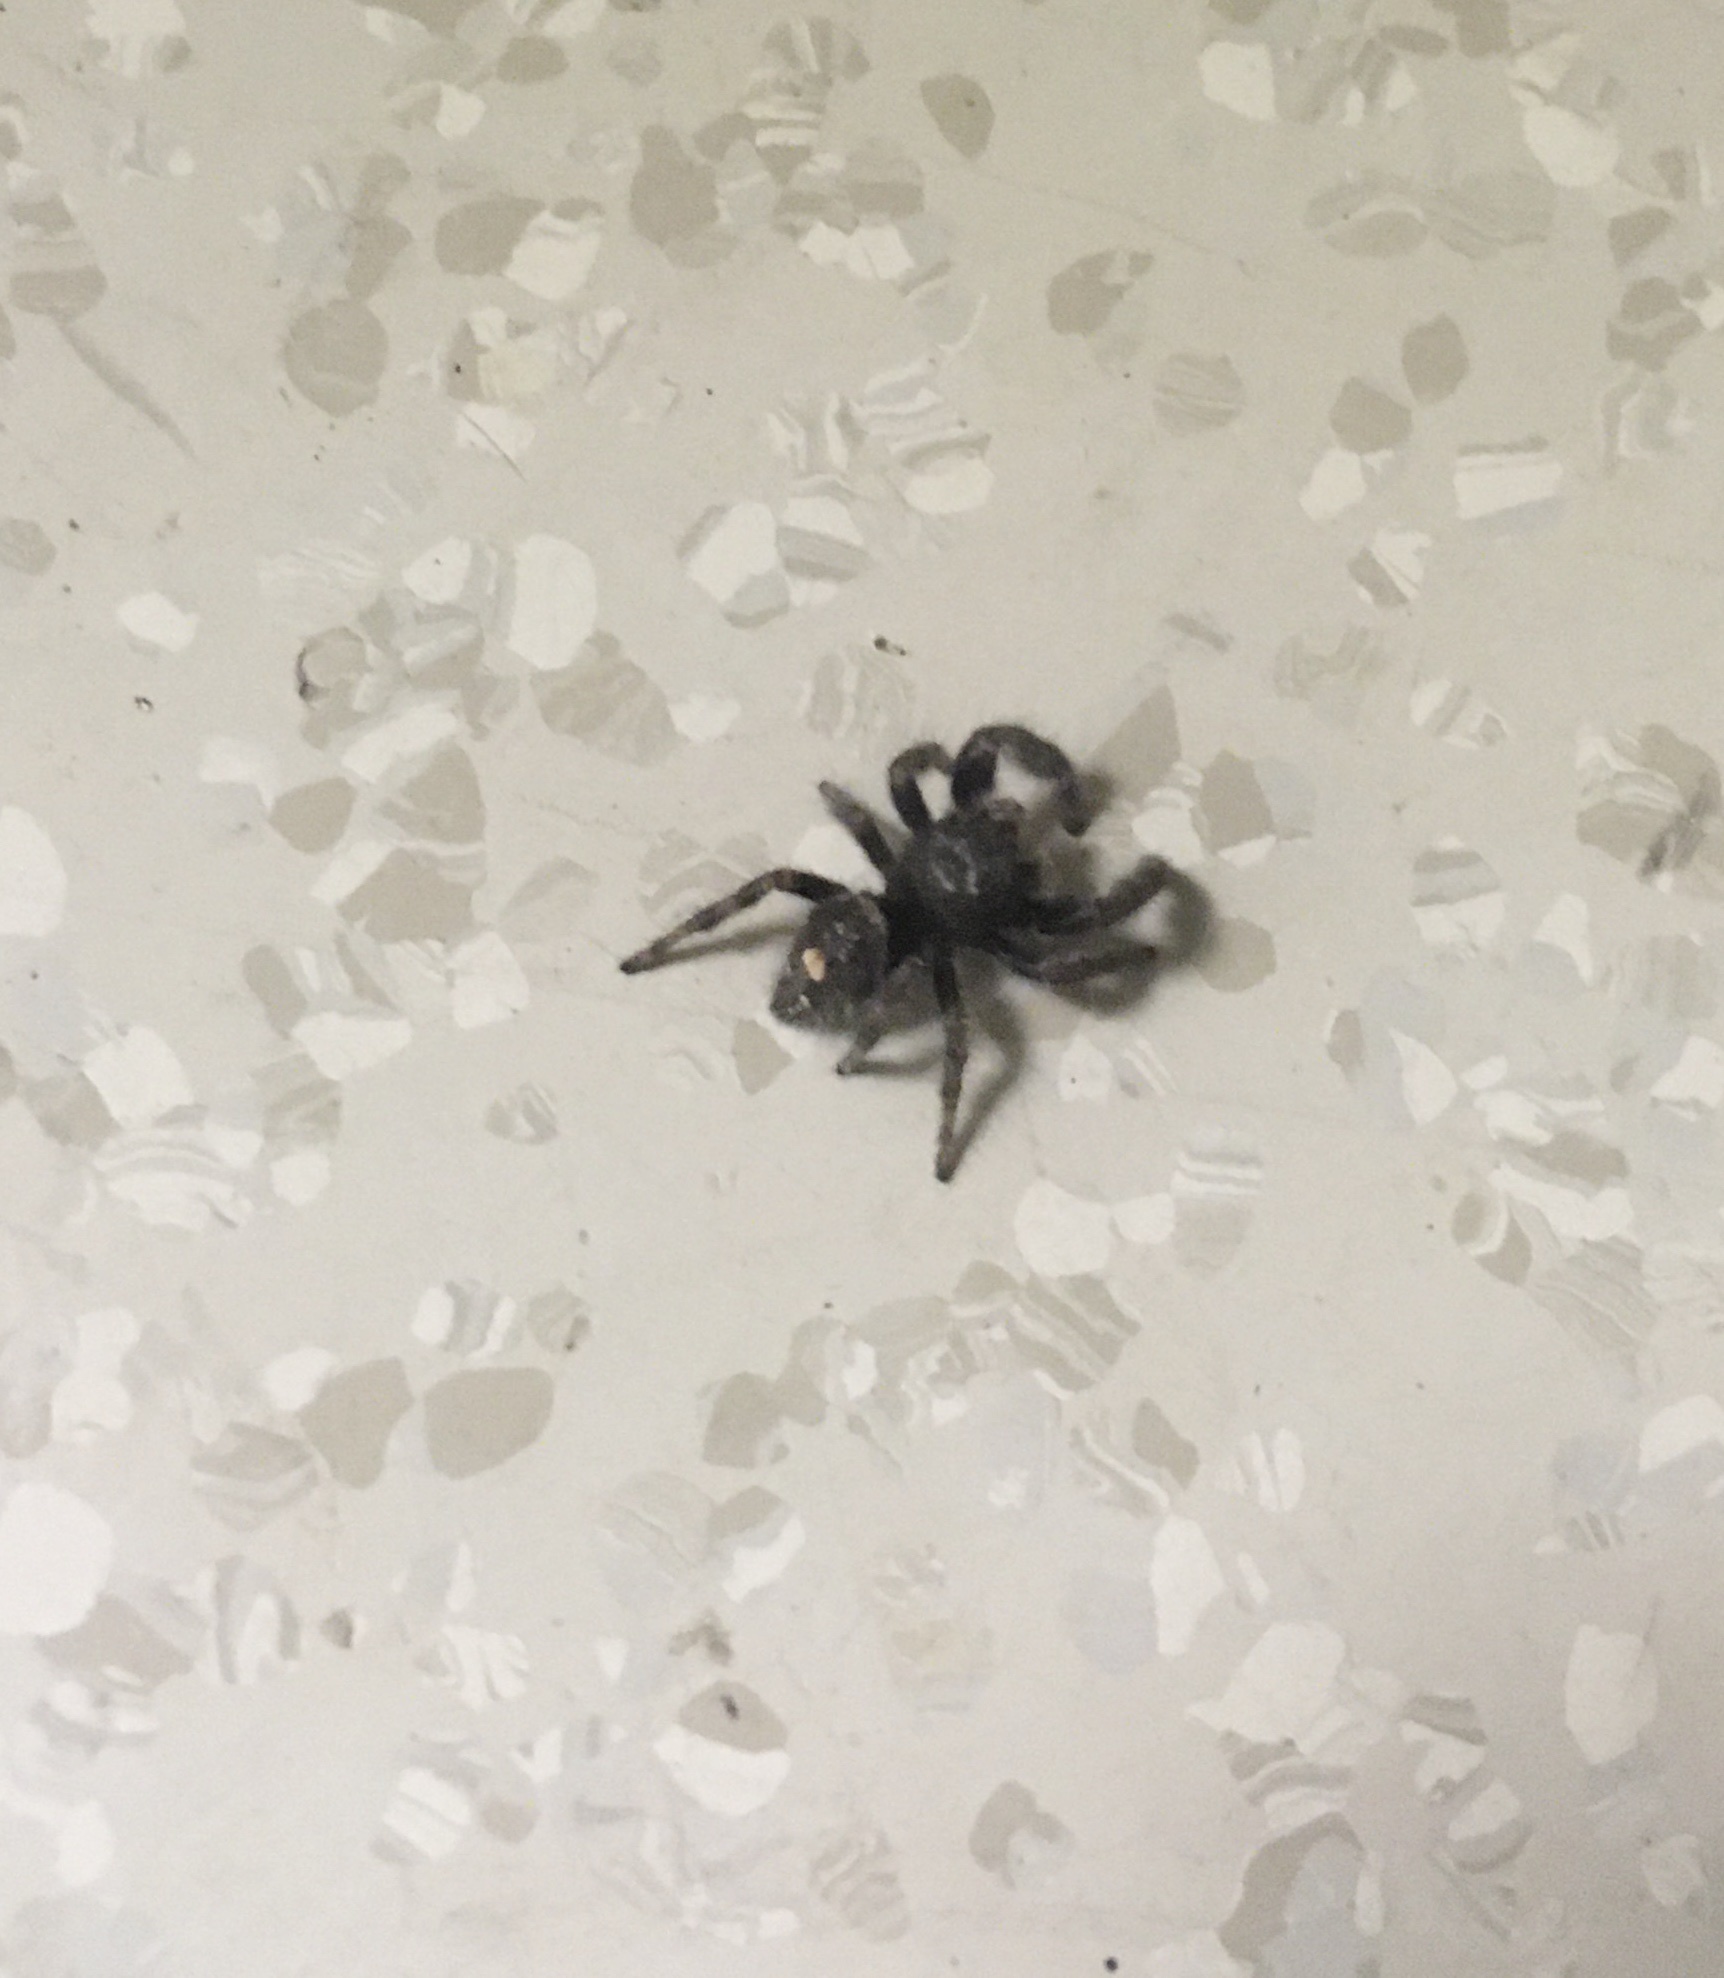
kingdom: Animalia
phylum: Arthropoda
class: Arachnida
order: Araneae
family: Salticidae
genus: Phidippus
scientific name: Phidippus audax
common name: Bold jumper
